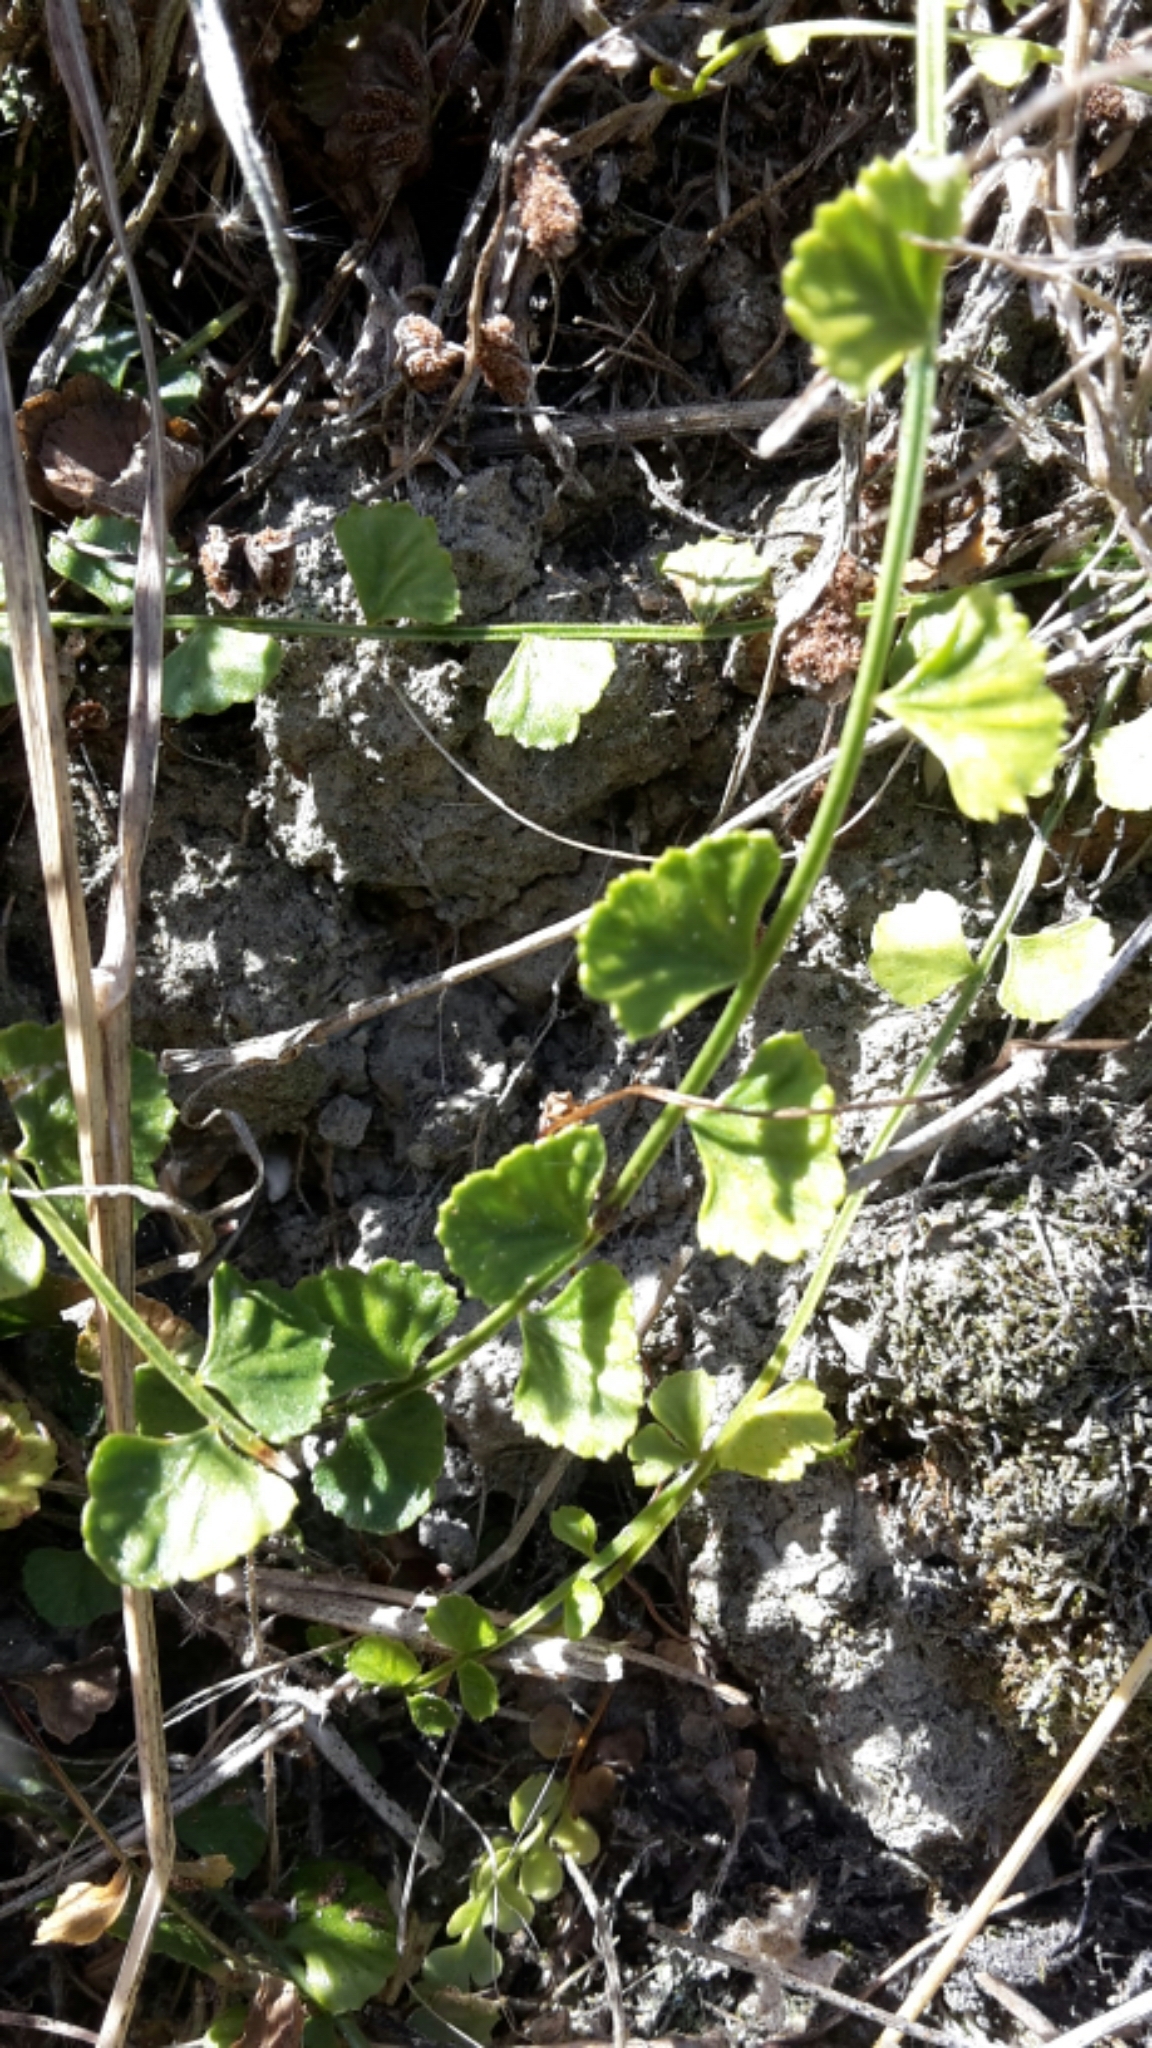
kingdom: Plantae
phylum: Tracheophyta
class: Polypodiopsida
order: Polypodiales
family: Aspleniaceae
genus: Asplenium
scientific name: Asplenium flabellifolium
